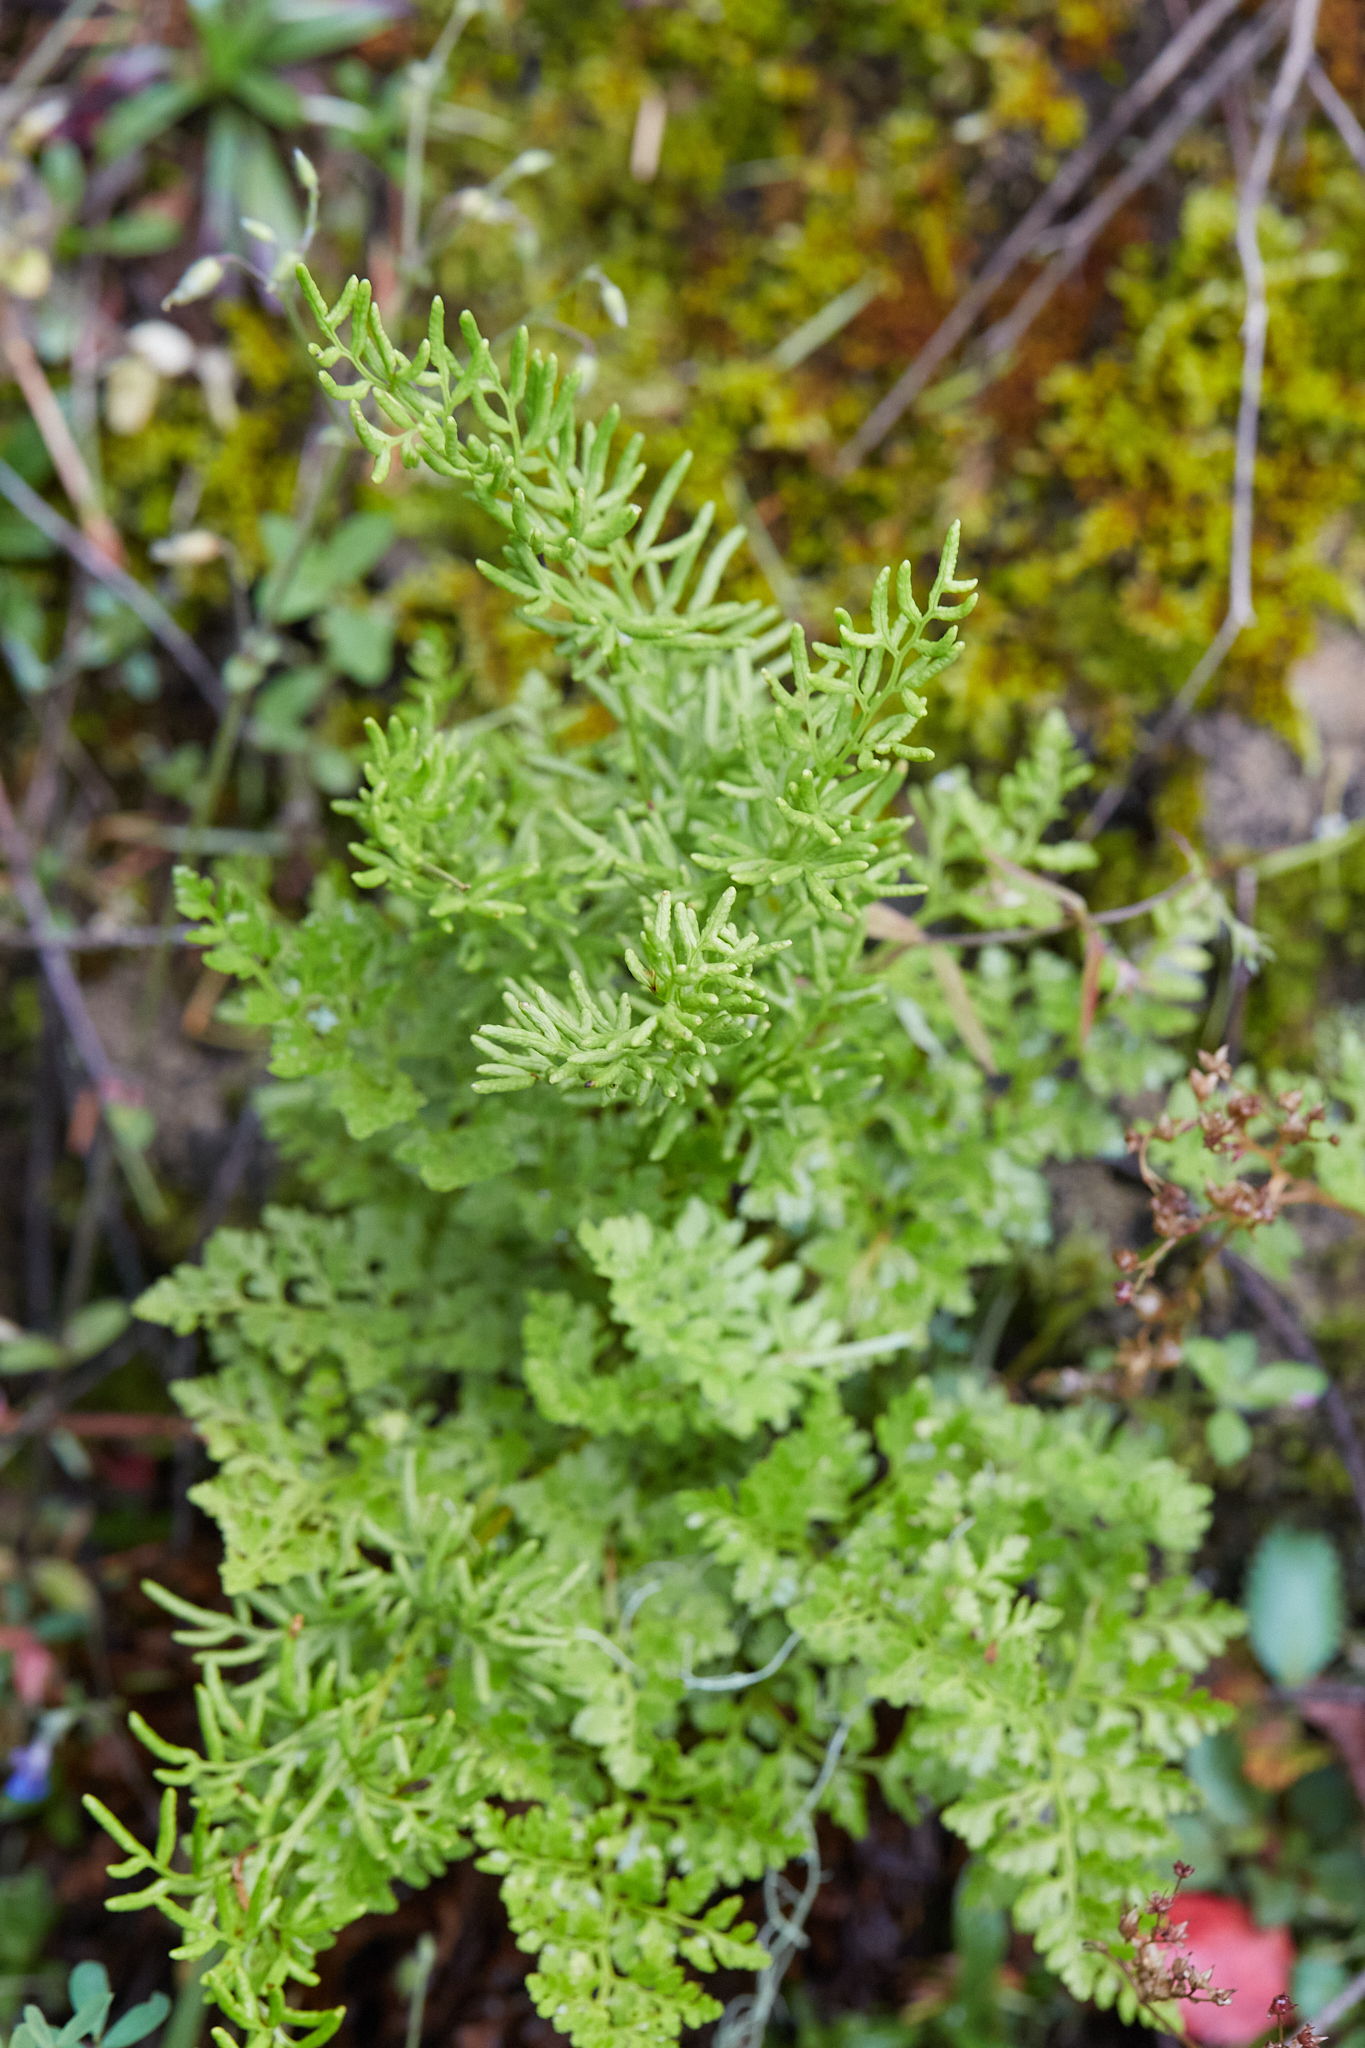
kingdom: Plantae
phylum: Tracheophyta
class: Polypodiopsida
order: Polypodiales
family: Pteridaceae
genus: Cryptogramma
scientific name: Cryptogramma acrostichoides
